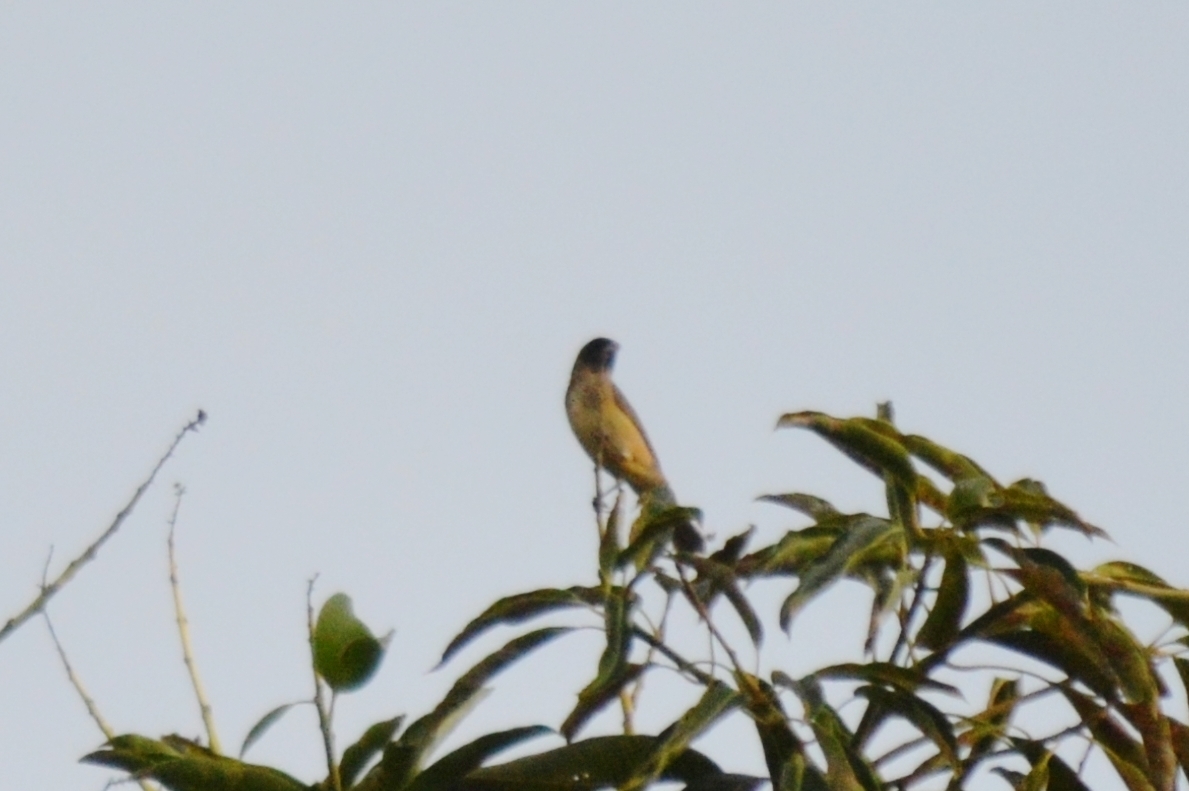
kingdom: Animalia
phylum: Chordata
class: Aves
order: Passeriformes
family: Thraupidae
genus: Schistochlamys
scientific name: Schistochlamys melanopis
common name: Black-faced tanager
